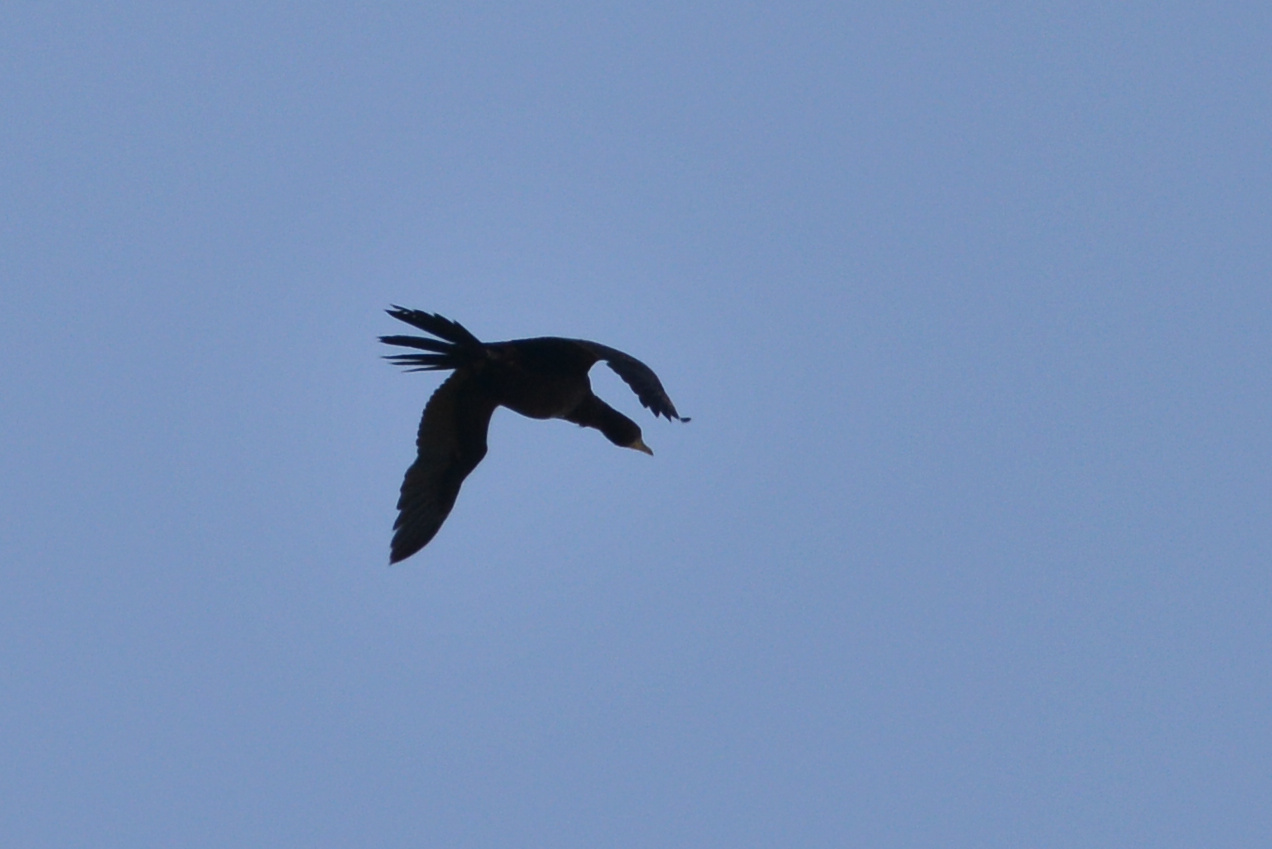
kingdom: Animalia
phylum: Chordata
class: Aves
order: Suliformes
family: Phalacrocoracidae
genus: Microcarbo
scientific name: Microcarbo melanoleucos
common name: Little pied cormorant
